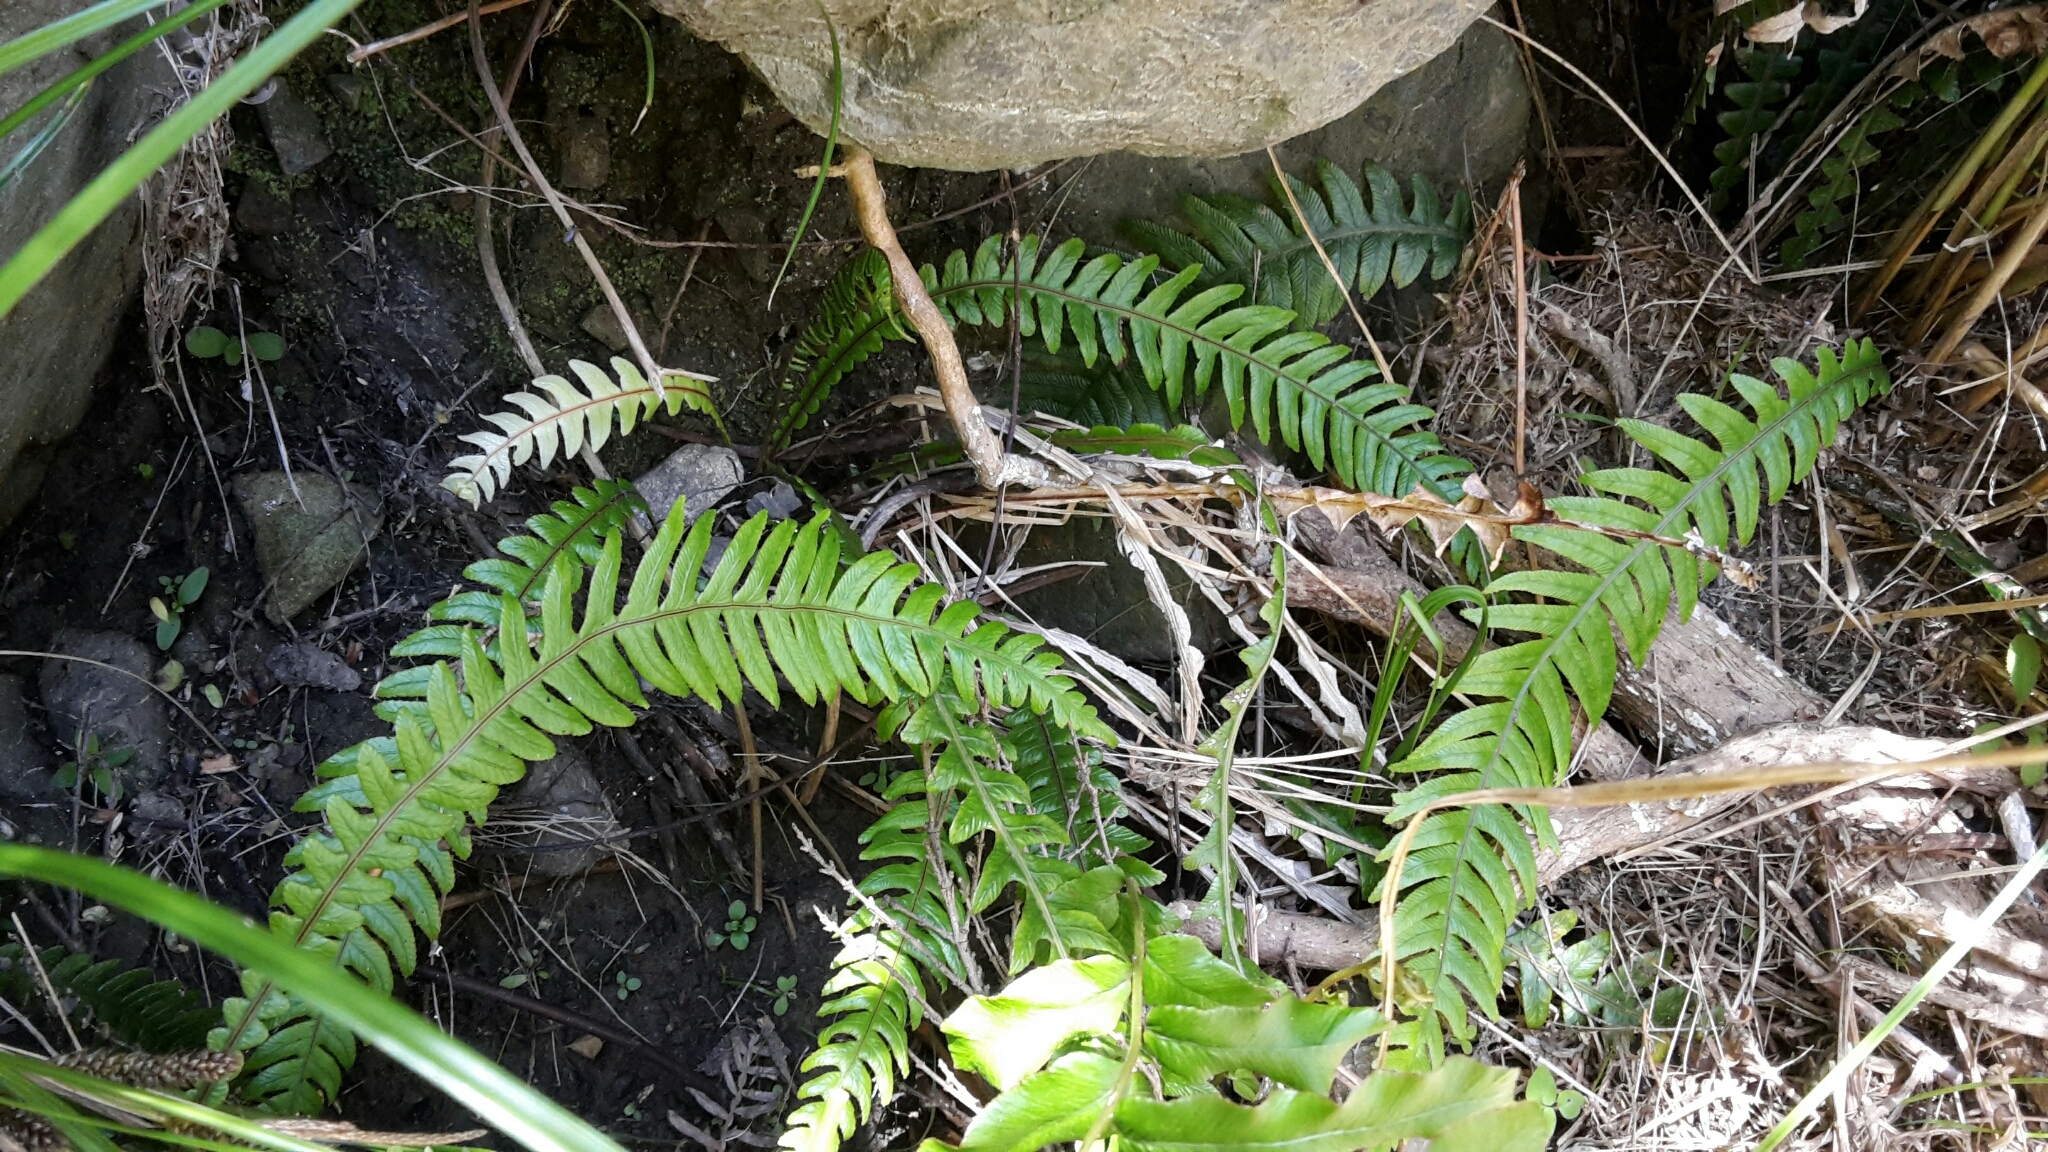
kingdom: Plantae
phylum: Tracheophyta
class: Polypodiopsida
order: Polypodiales
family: Blechnaceae
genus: Austroblechnum
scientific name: Austroblechnum lanceolatum
